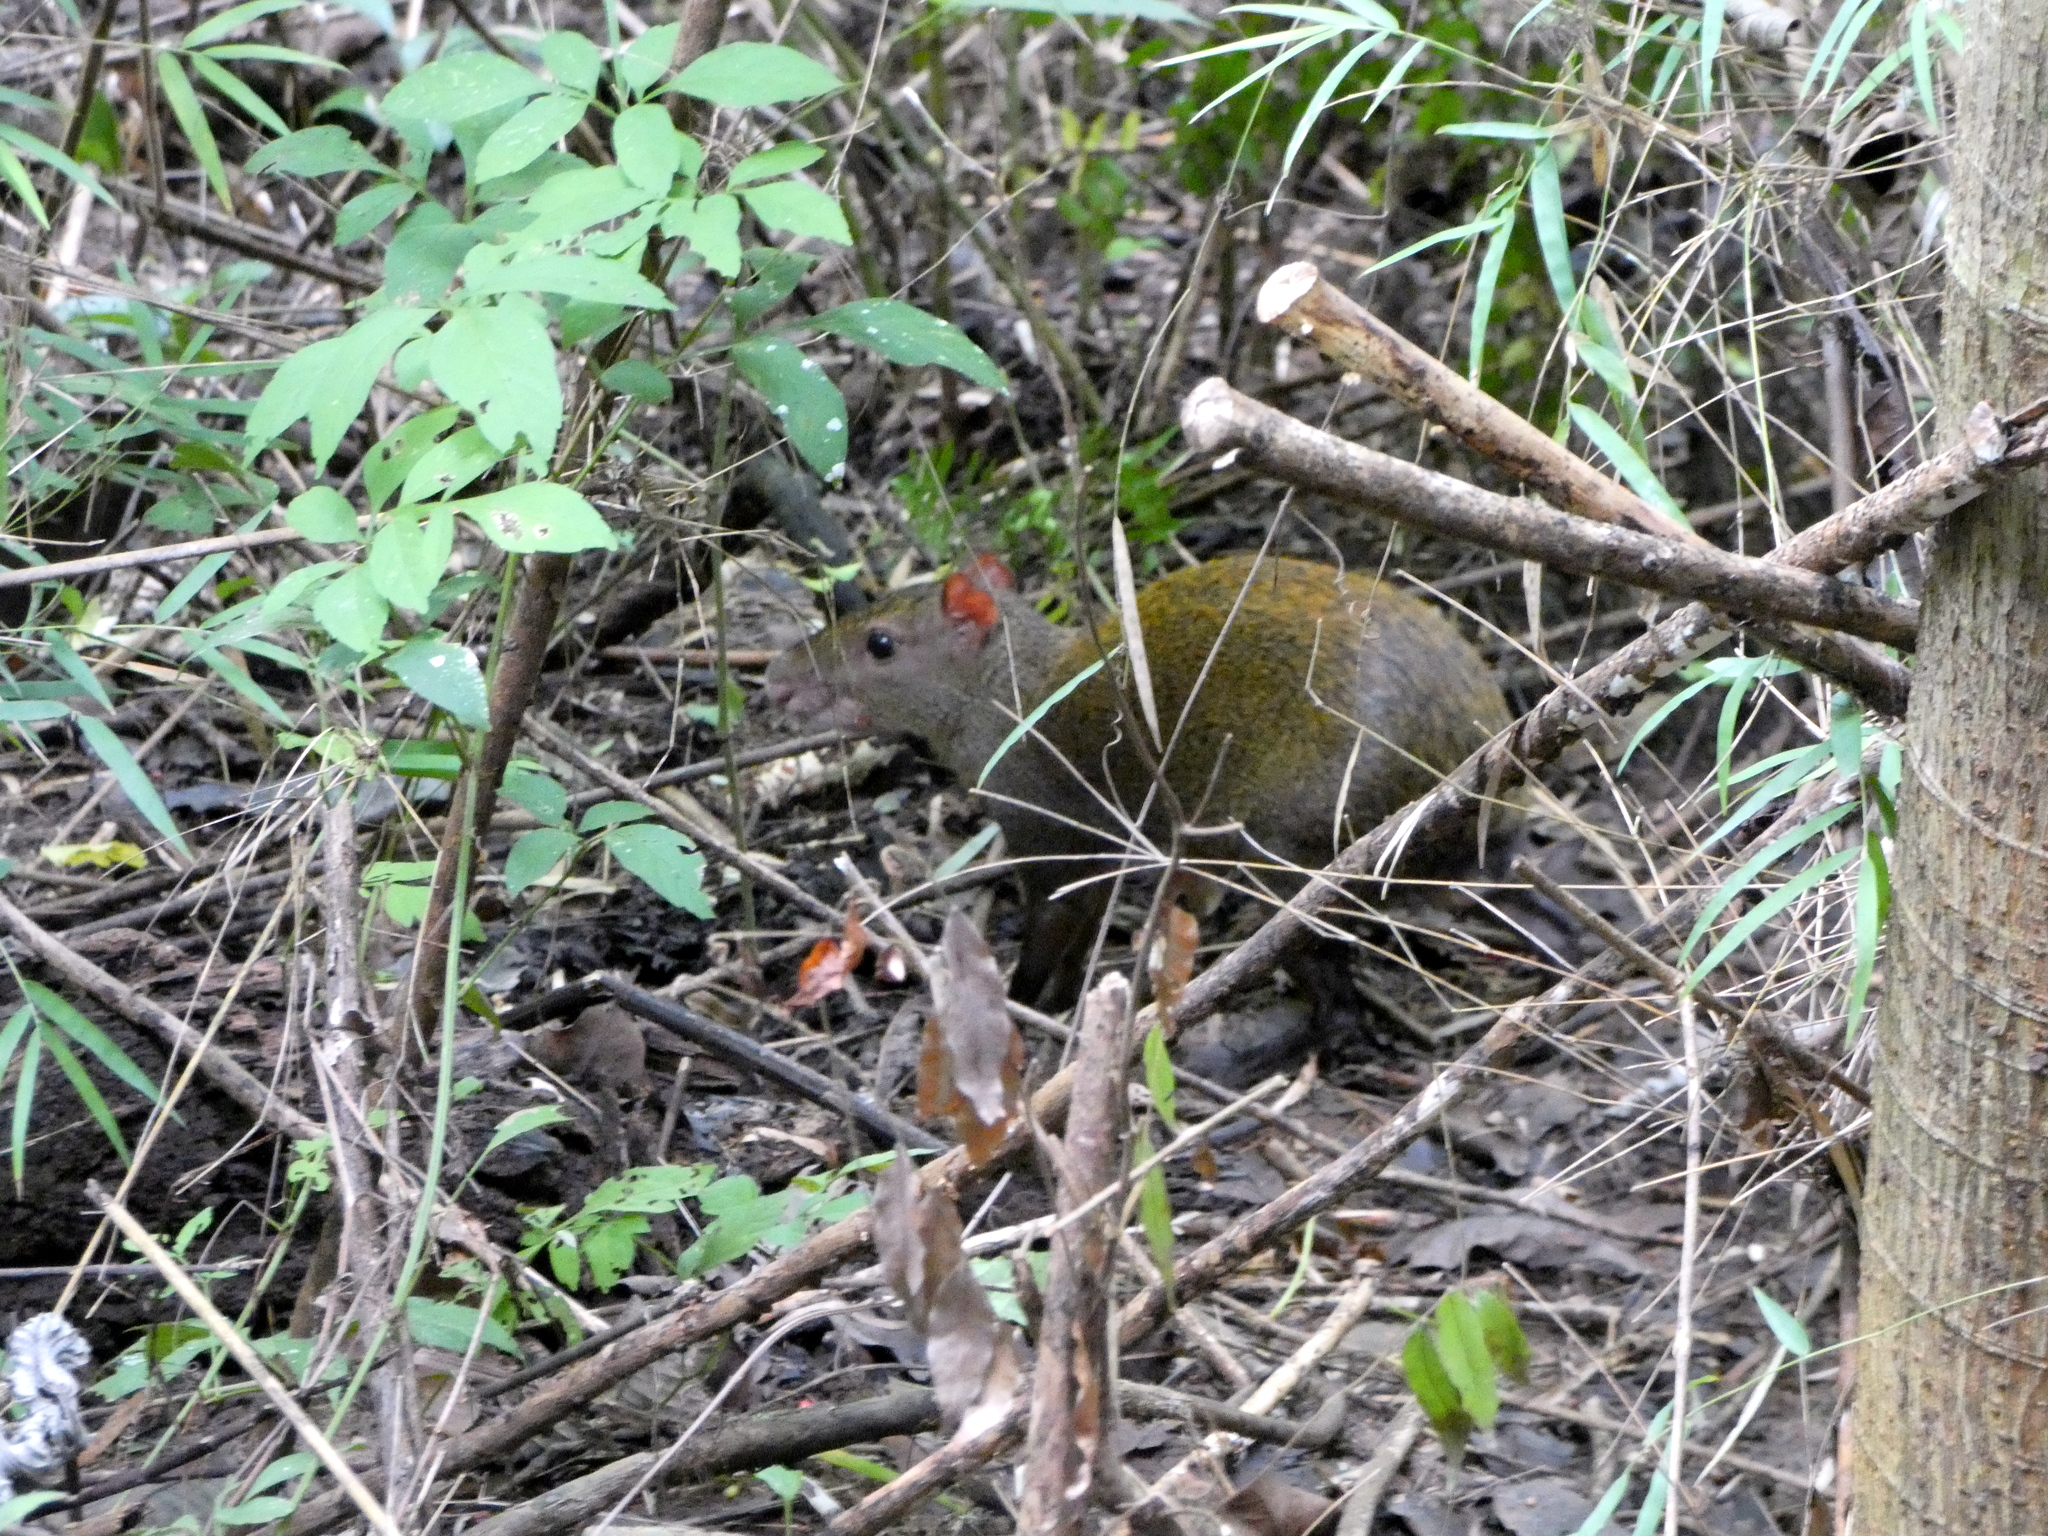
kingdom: Animalia
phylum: Chordata
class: Mammalia
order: Rodentia
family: Dasyproctidae
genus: Dasyprocta
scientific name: Dasyprocta punctata
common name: Central american agouti
